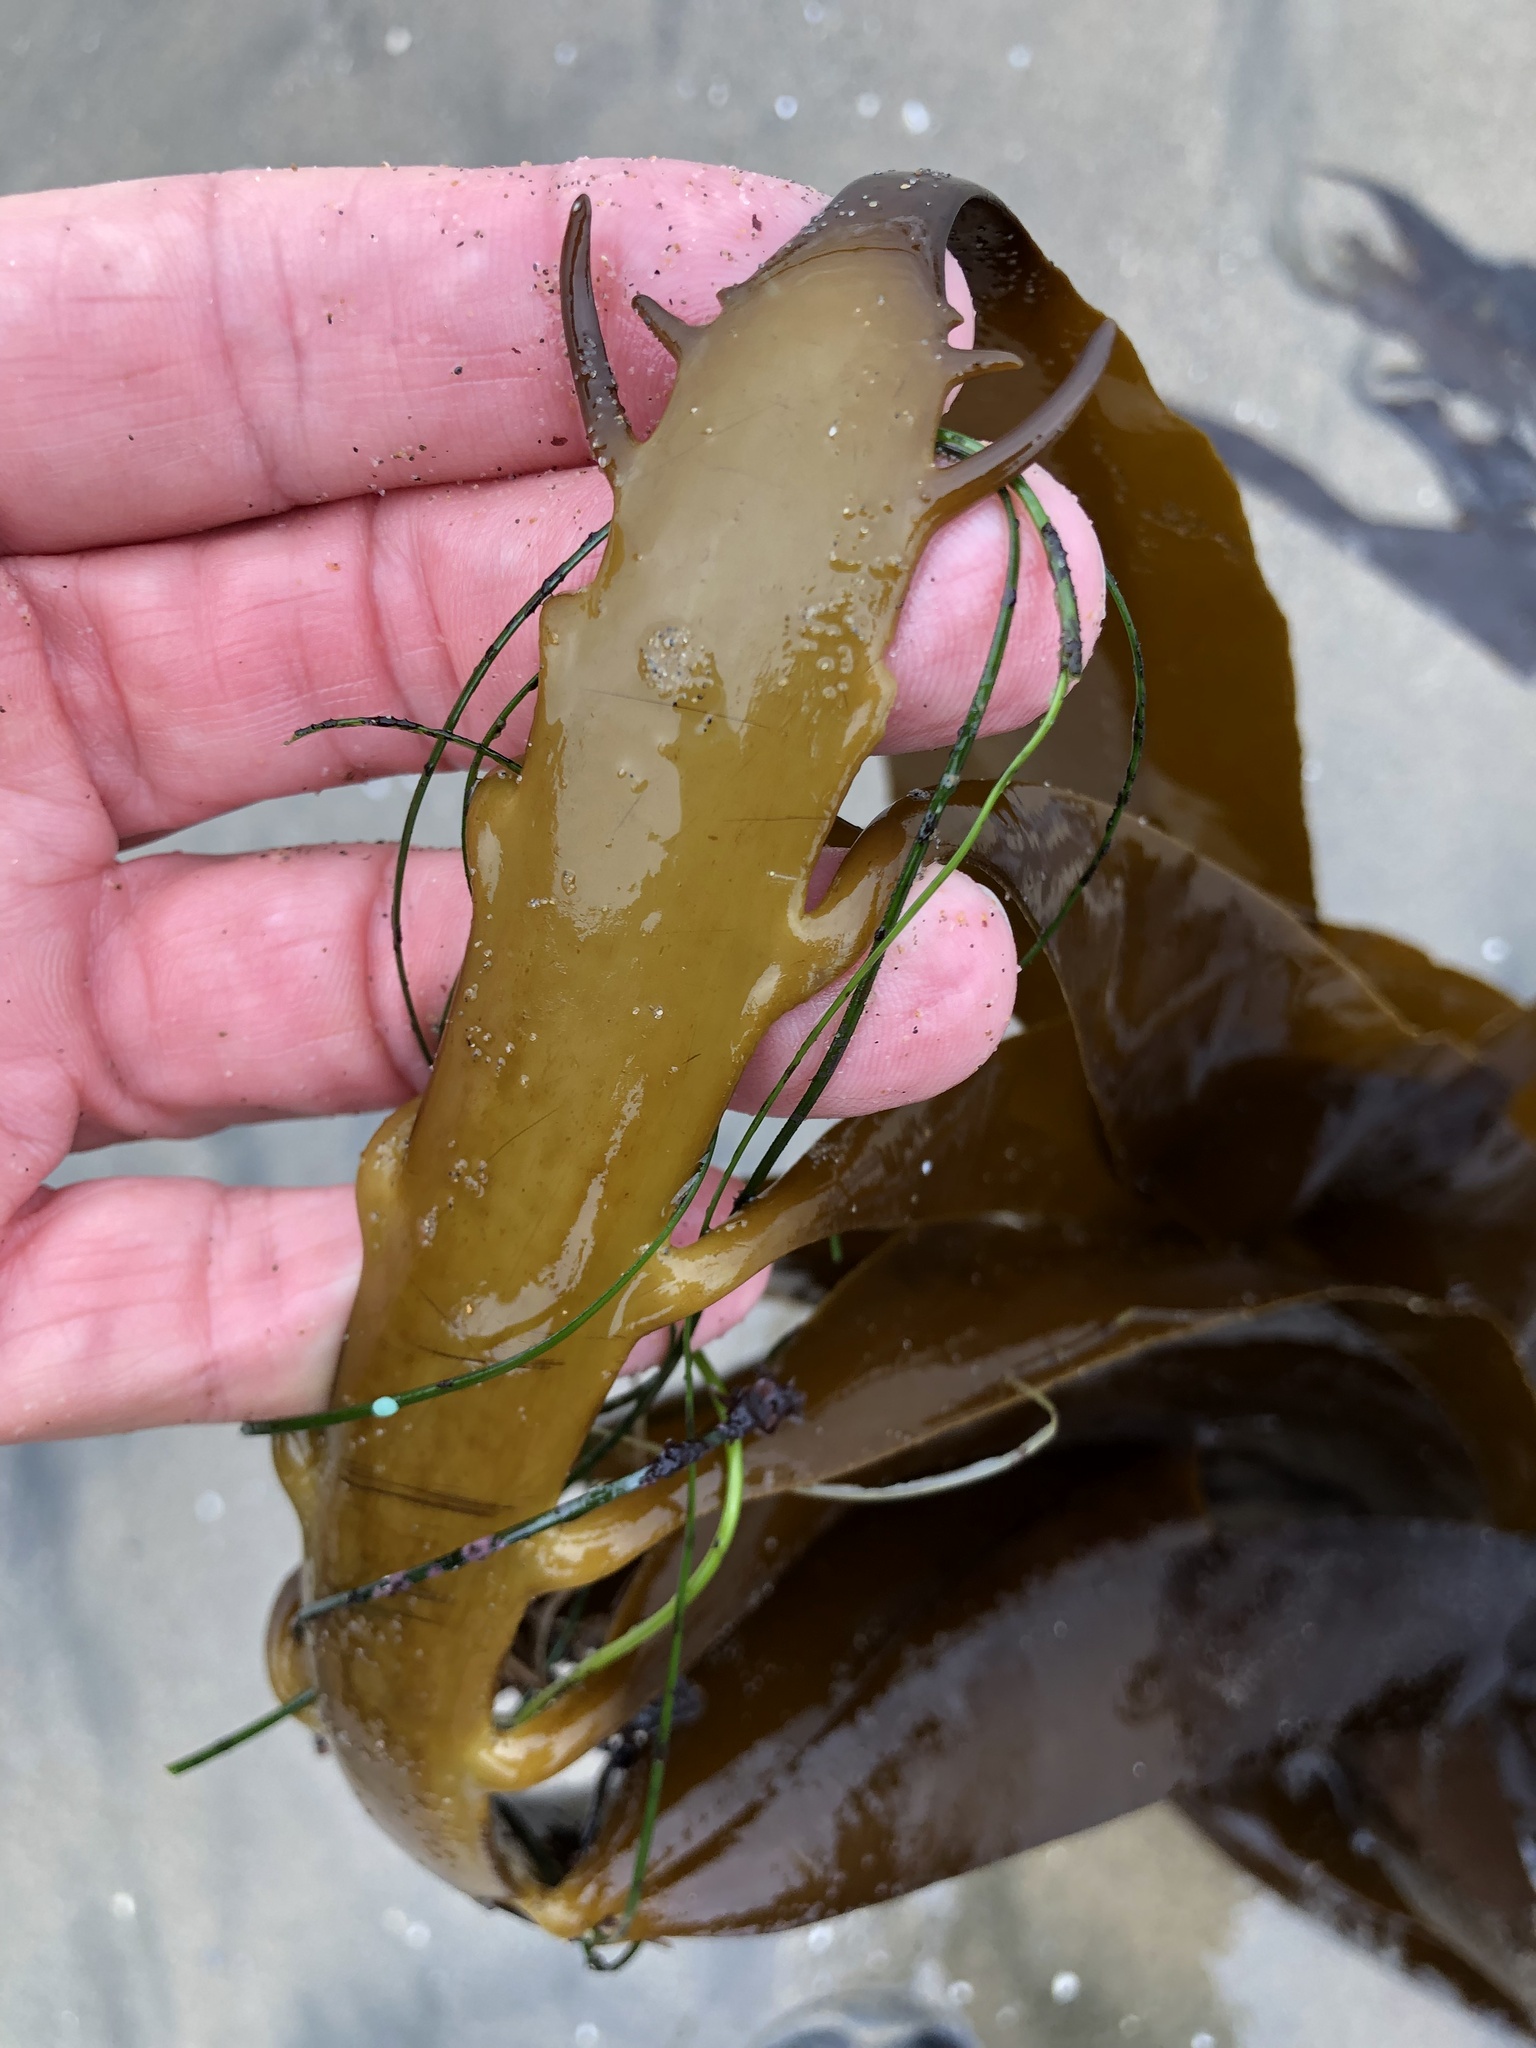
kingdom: Chromista
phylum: Ochrophyta
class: Phaeophyceae
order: Laminariales
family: Alariaceae
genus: Pterygophora
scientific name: Pterygophora californica
